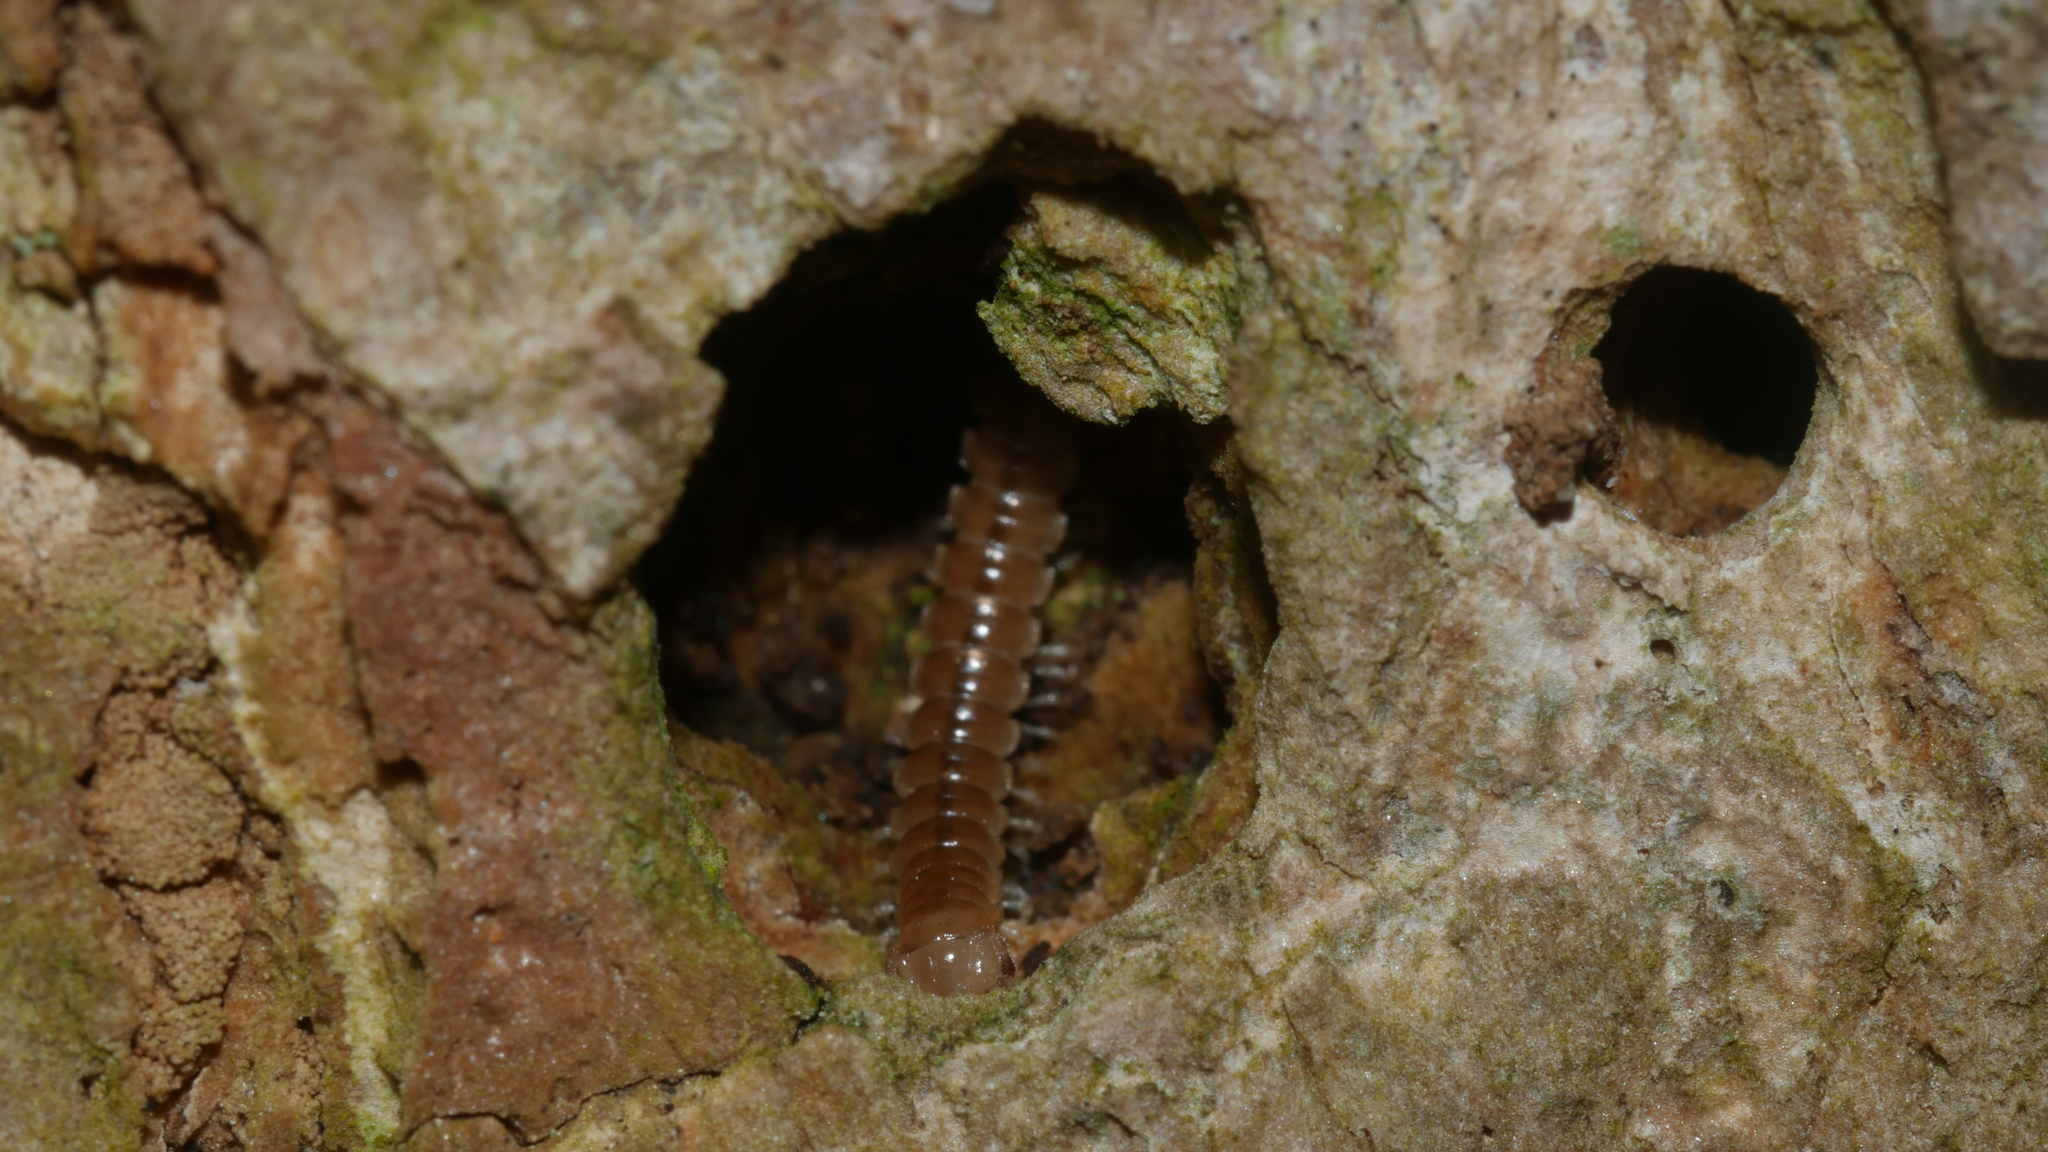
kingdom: Animalia
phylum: Arthropoda
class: Diplopoda
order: Polydesmida
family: Paradoxosomatidae
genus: Oxidus
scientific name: Oxidus gracilis
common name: Greenhouse millipede
